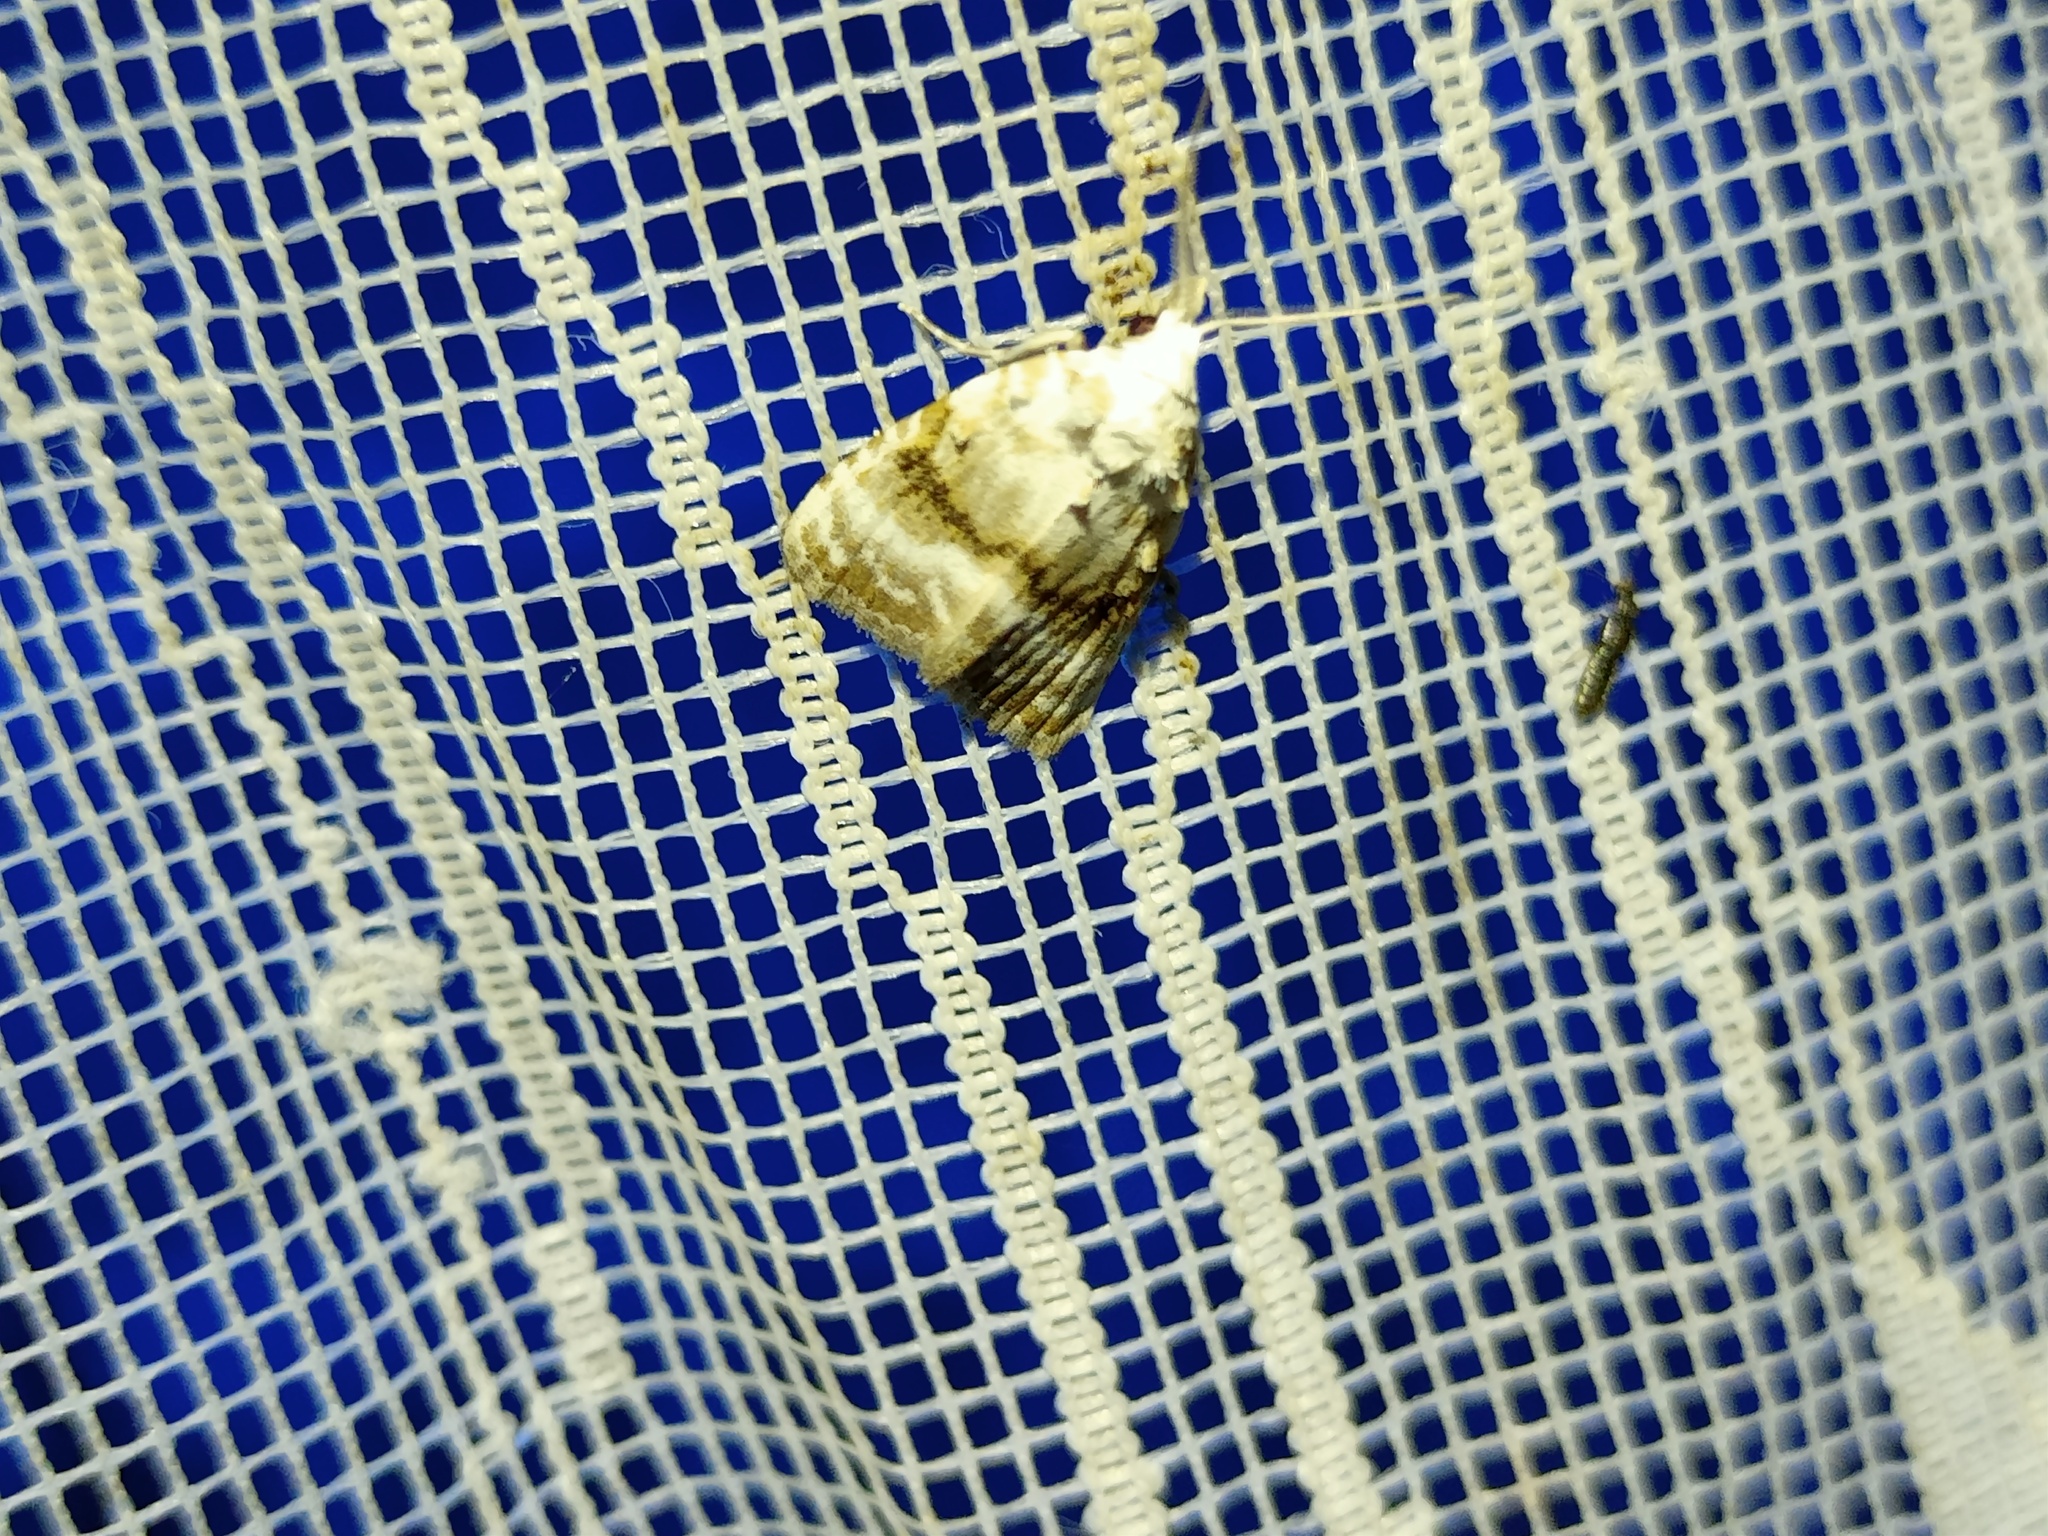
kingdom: Animalia
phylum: Arthropoda
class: Insecta
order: Lepidoptera
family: Nolidae
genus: Meganola
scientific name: Meganola albula
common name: Kent black arches
